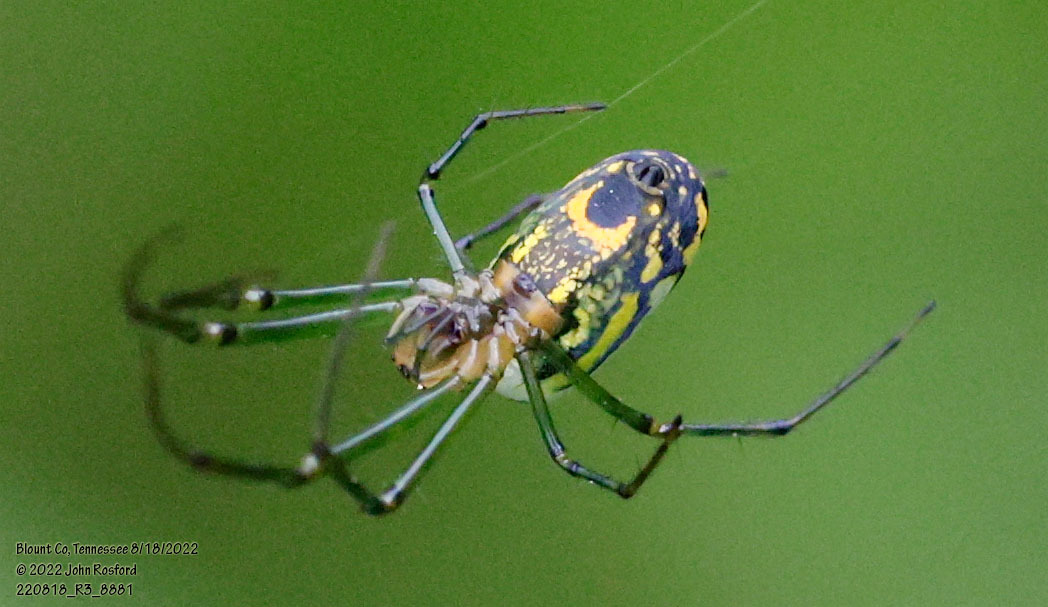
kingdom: Animalia
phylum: Arthropoda
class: Arachnida
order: Araneae
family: Tetragnathidae
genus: Leucauge
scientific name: Leucauge venusta
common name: Longjawed orb weavers
